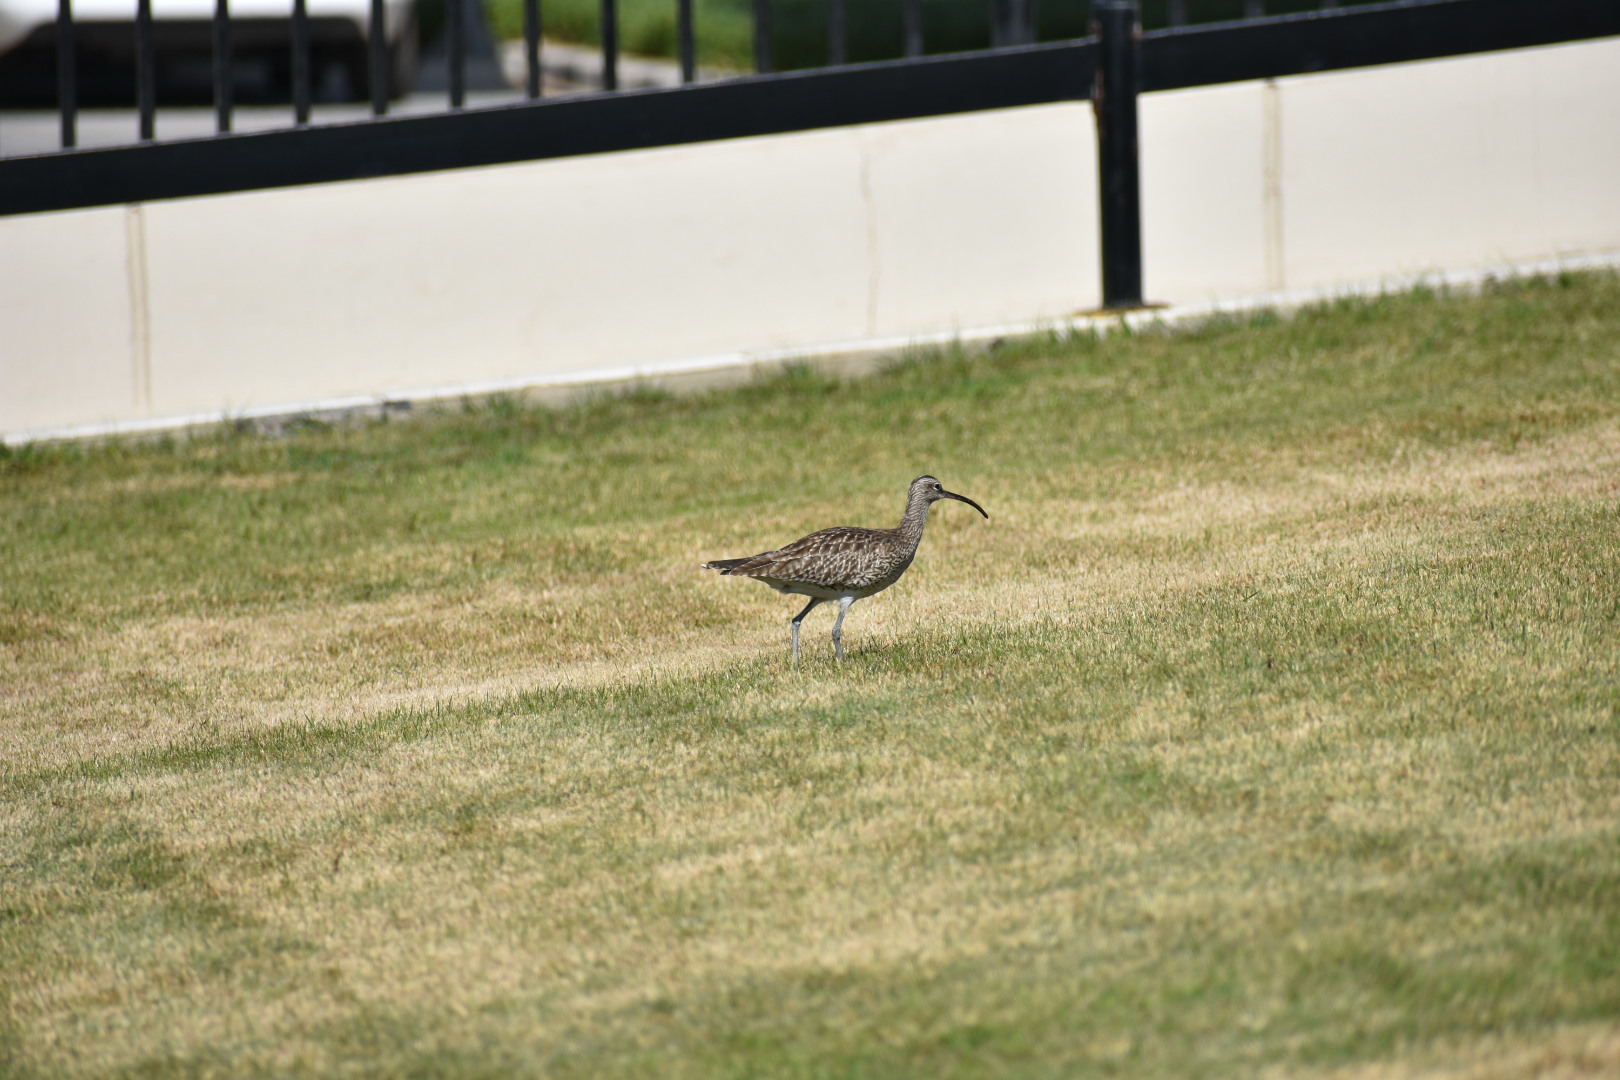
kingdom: Animalia
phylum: Chordata
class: Aves
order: Charadriiformes
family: Scolopacidae
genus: Numenius
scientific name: Numenius phaeopus
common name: Whimbrel
